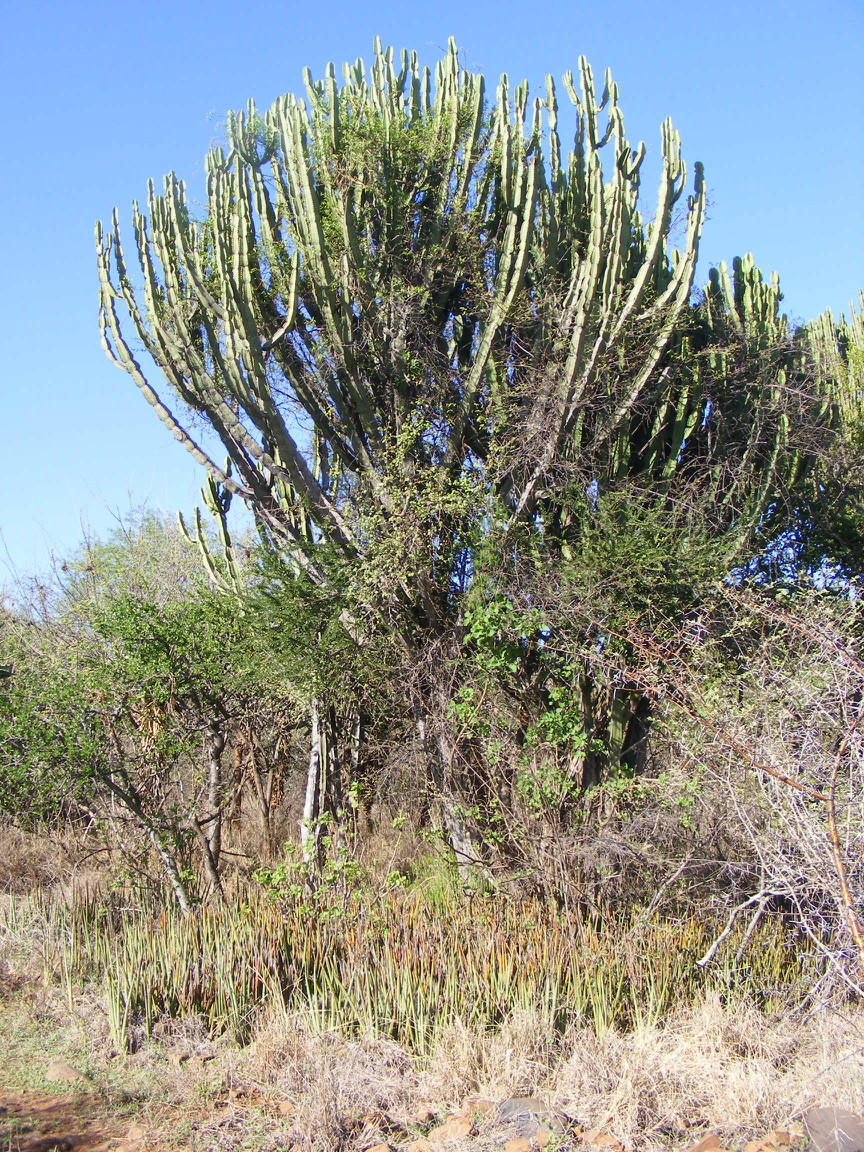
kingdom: Plantae
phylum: Tracheophyta
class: Magnoliopsida
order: Malpighiales
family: Euphorbiaceae
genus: Euphorbia
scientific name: Euphorbia ingens
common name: Cactus spurge
